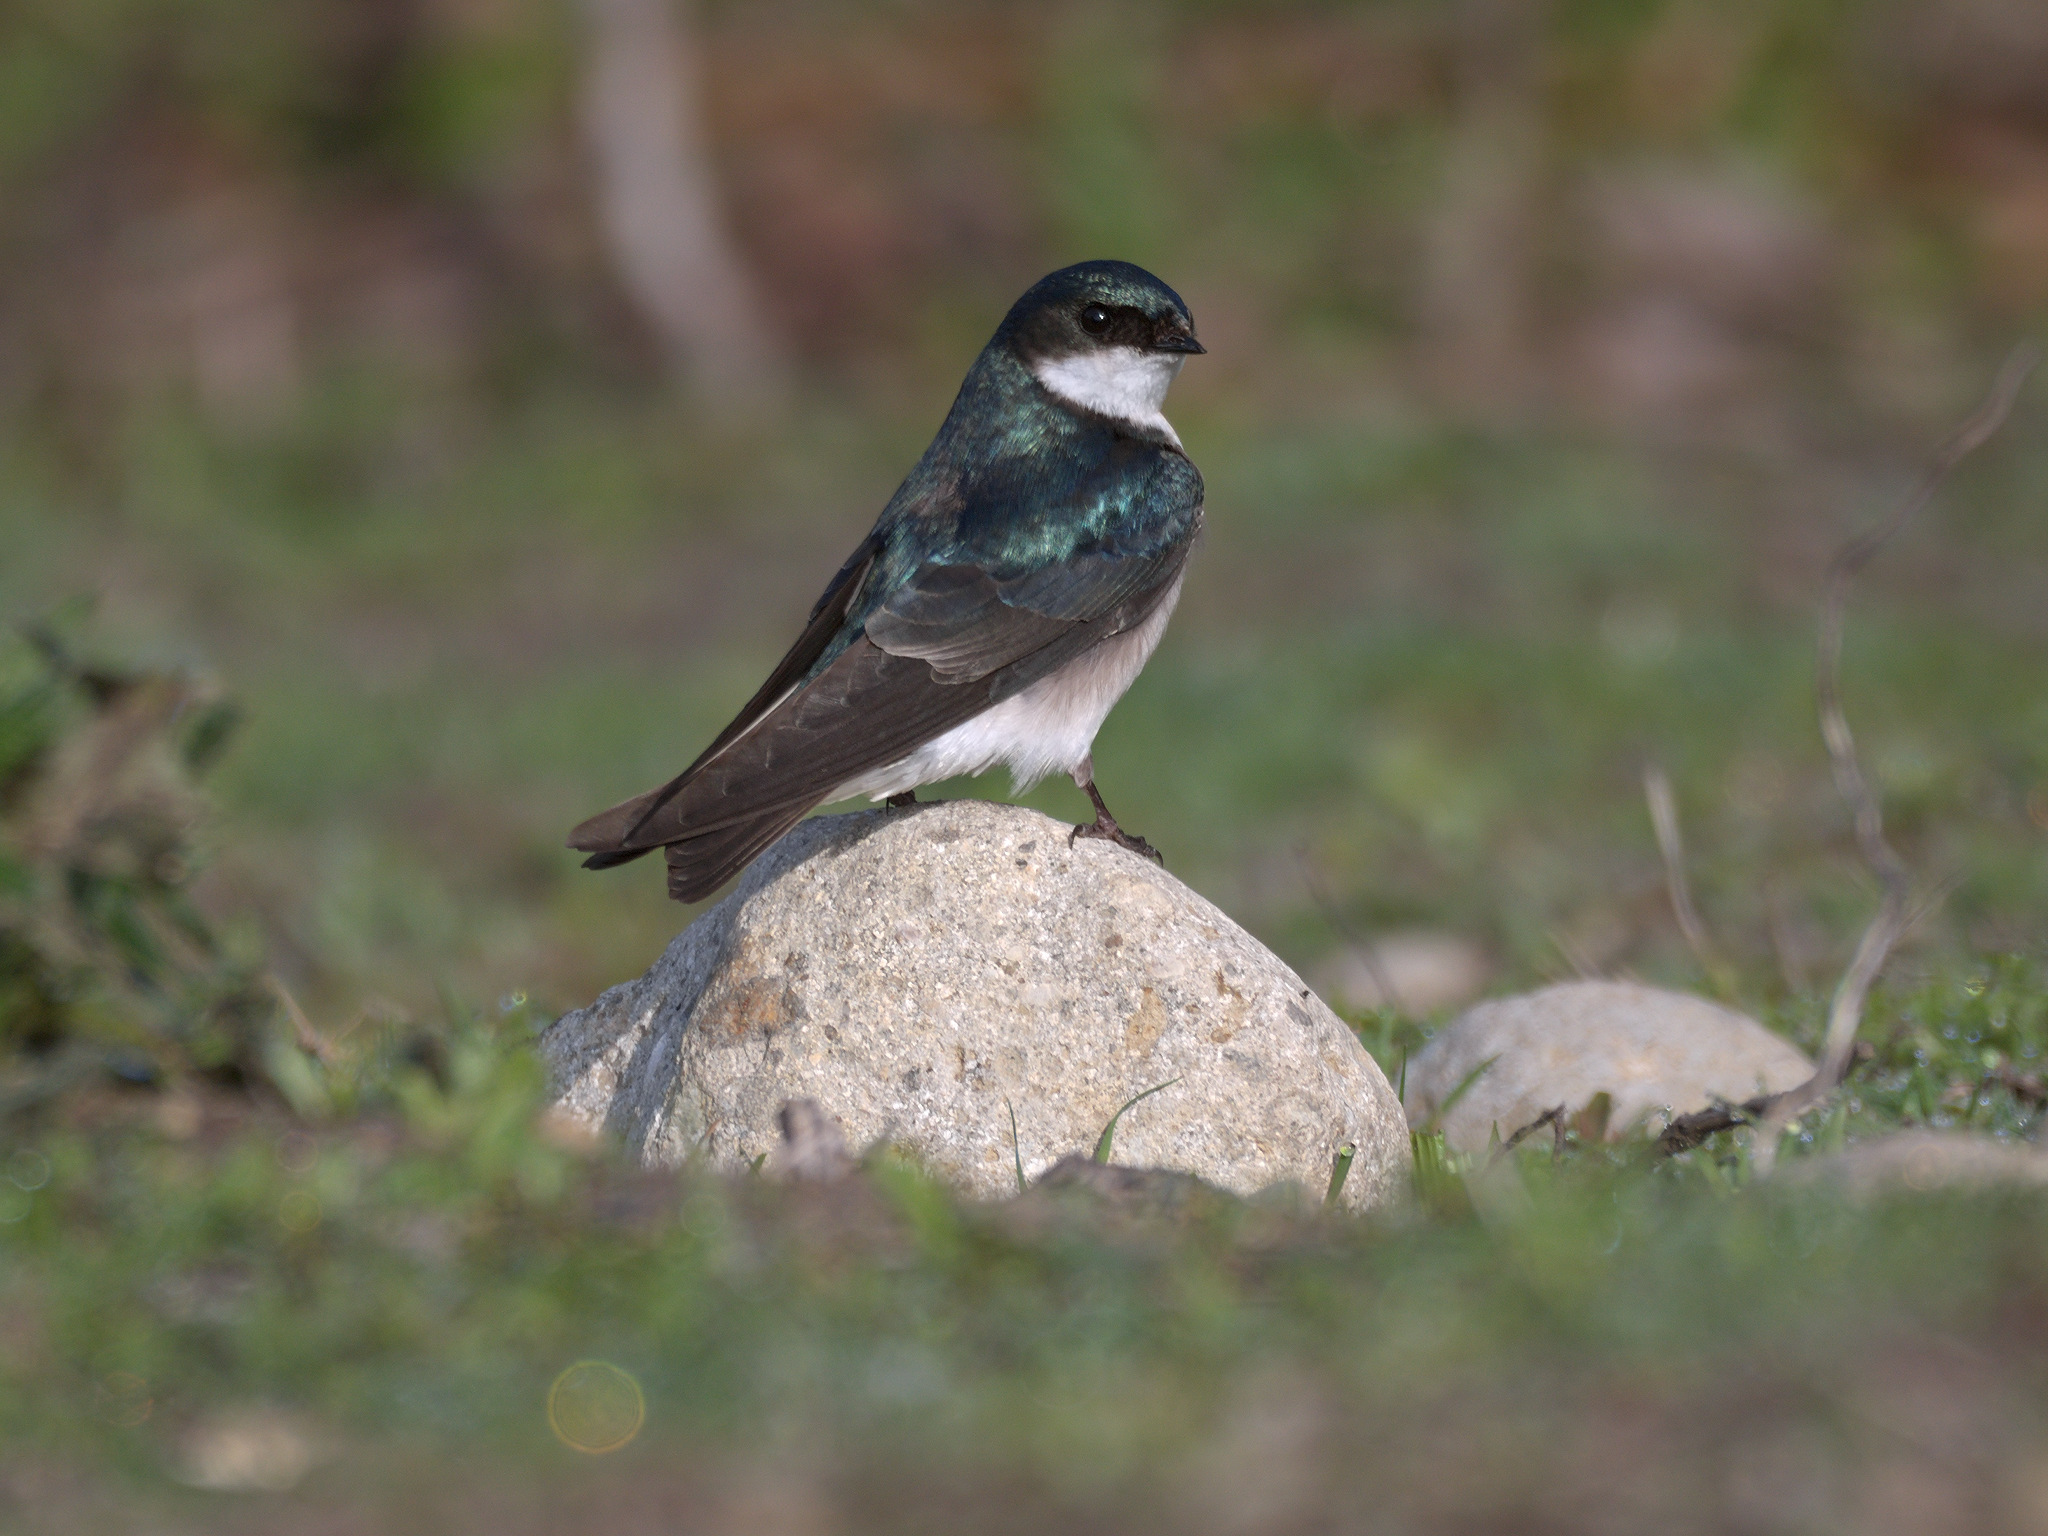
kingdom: Animalia
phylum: Chordata
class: Aves
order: Passeriformes
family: Hirundinidae
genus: Tachycineta
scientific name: Tachycineta bicolor
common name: Tree swallow
